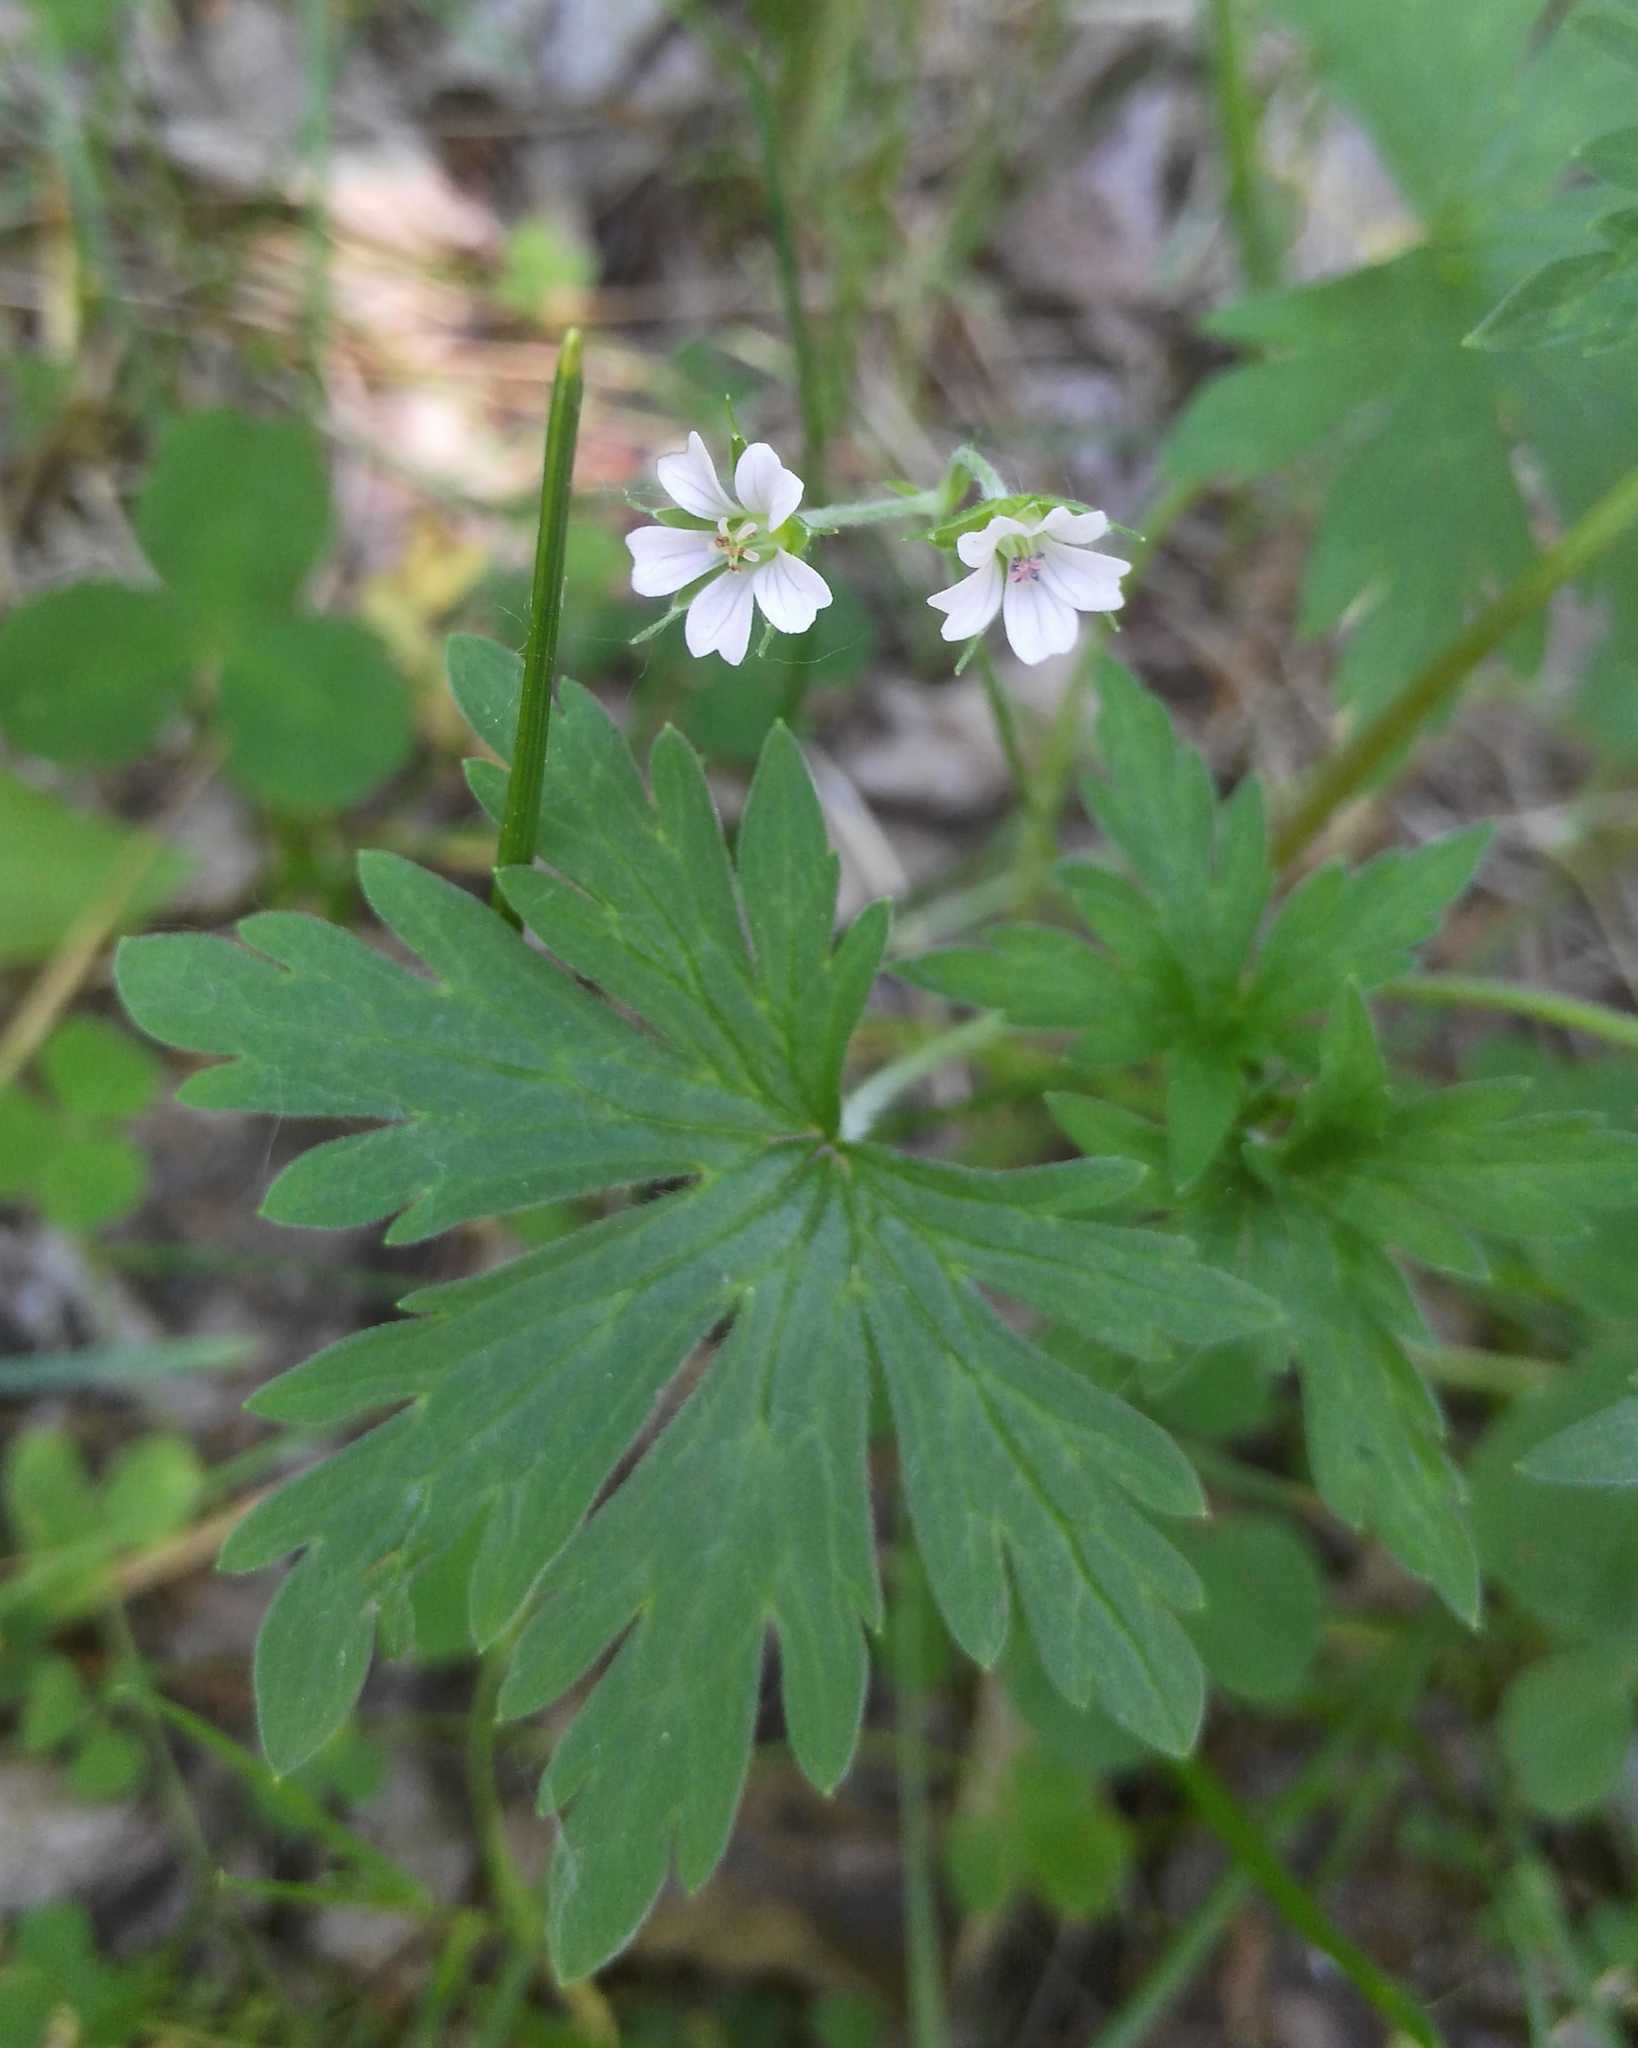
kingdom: Plantae
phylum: Tracheophyta
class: Magnoliopsida
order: Geraniales
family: Geraniaceae
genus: Geranium
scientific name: Geranium sylvaticum
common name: Wood crane's-bill
